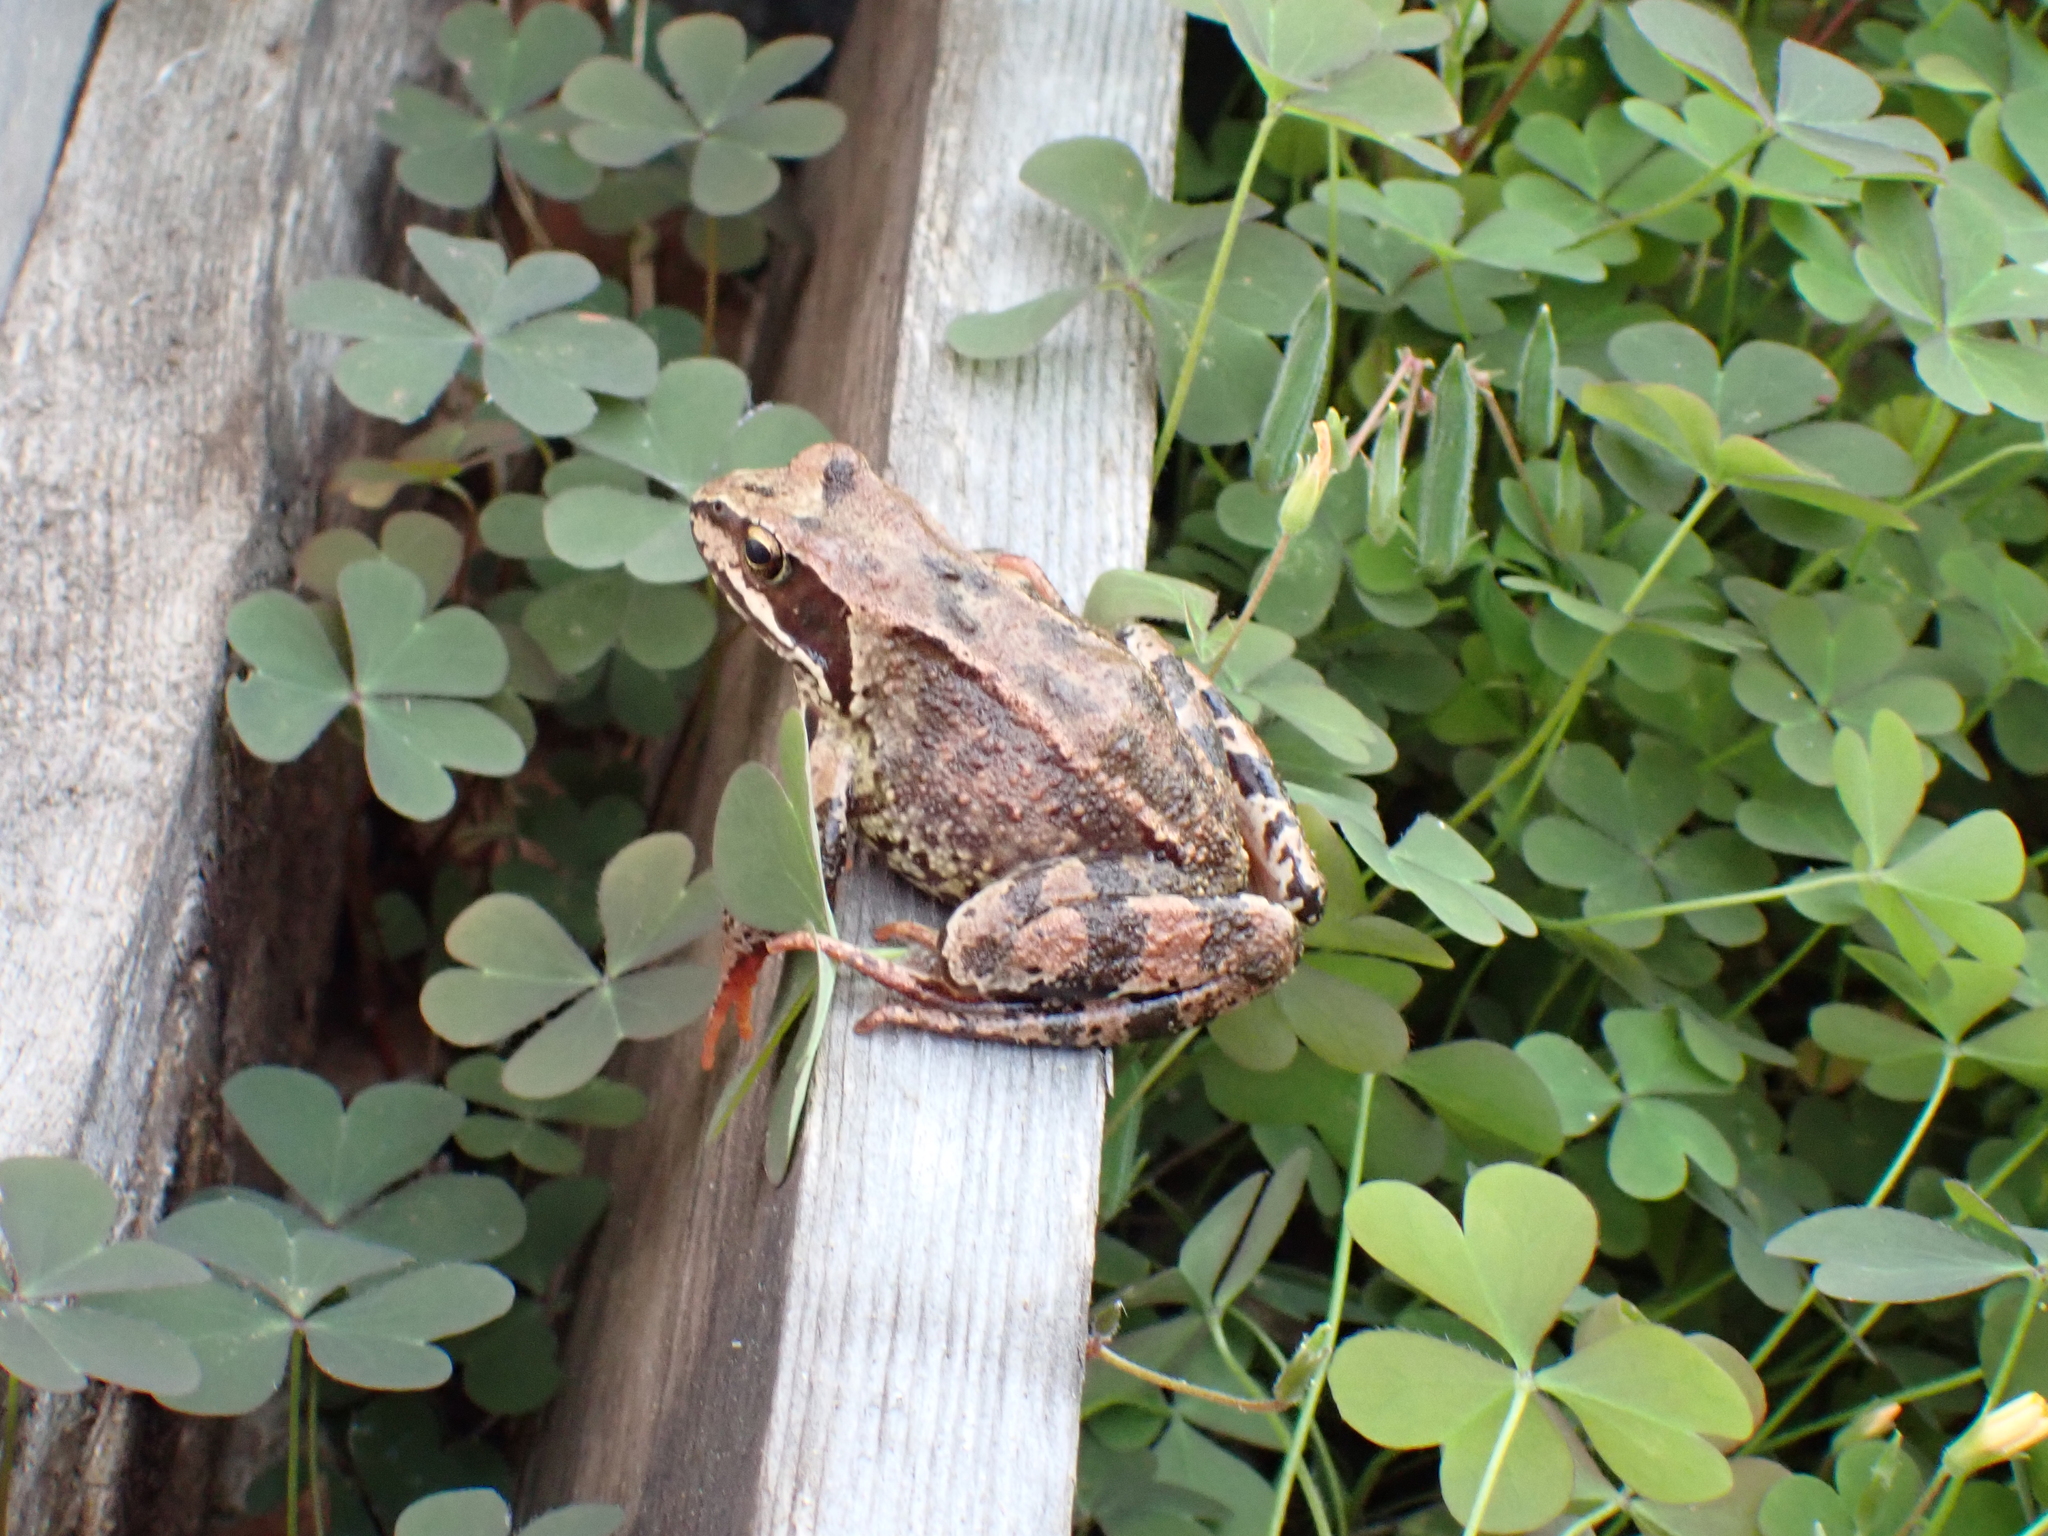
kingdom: Animalia
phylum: Chordata
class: Amphibia
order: Anura
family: Ranidae
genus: Rana
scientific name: Rana temporaria
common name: Common frog
